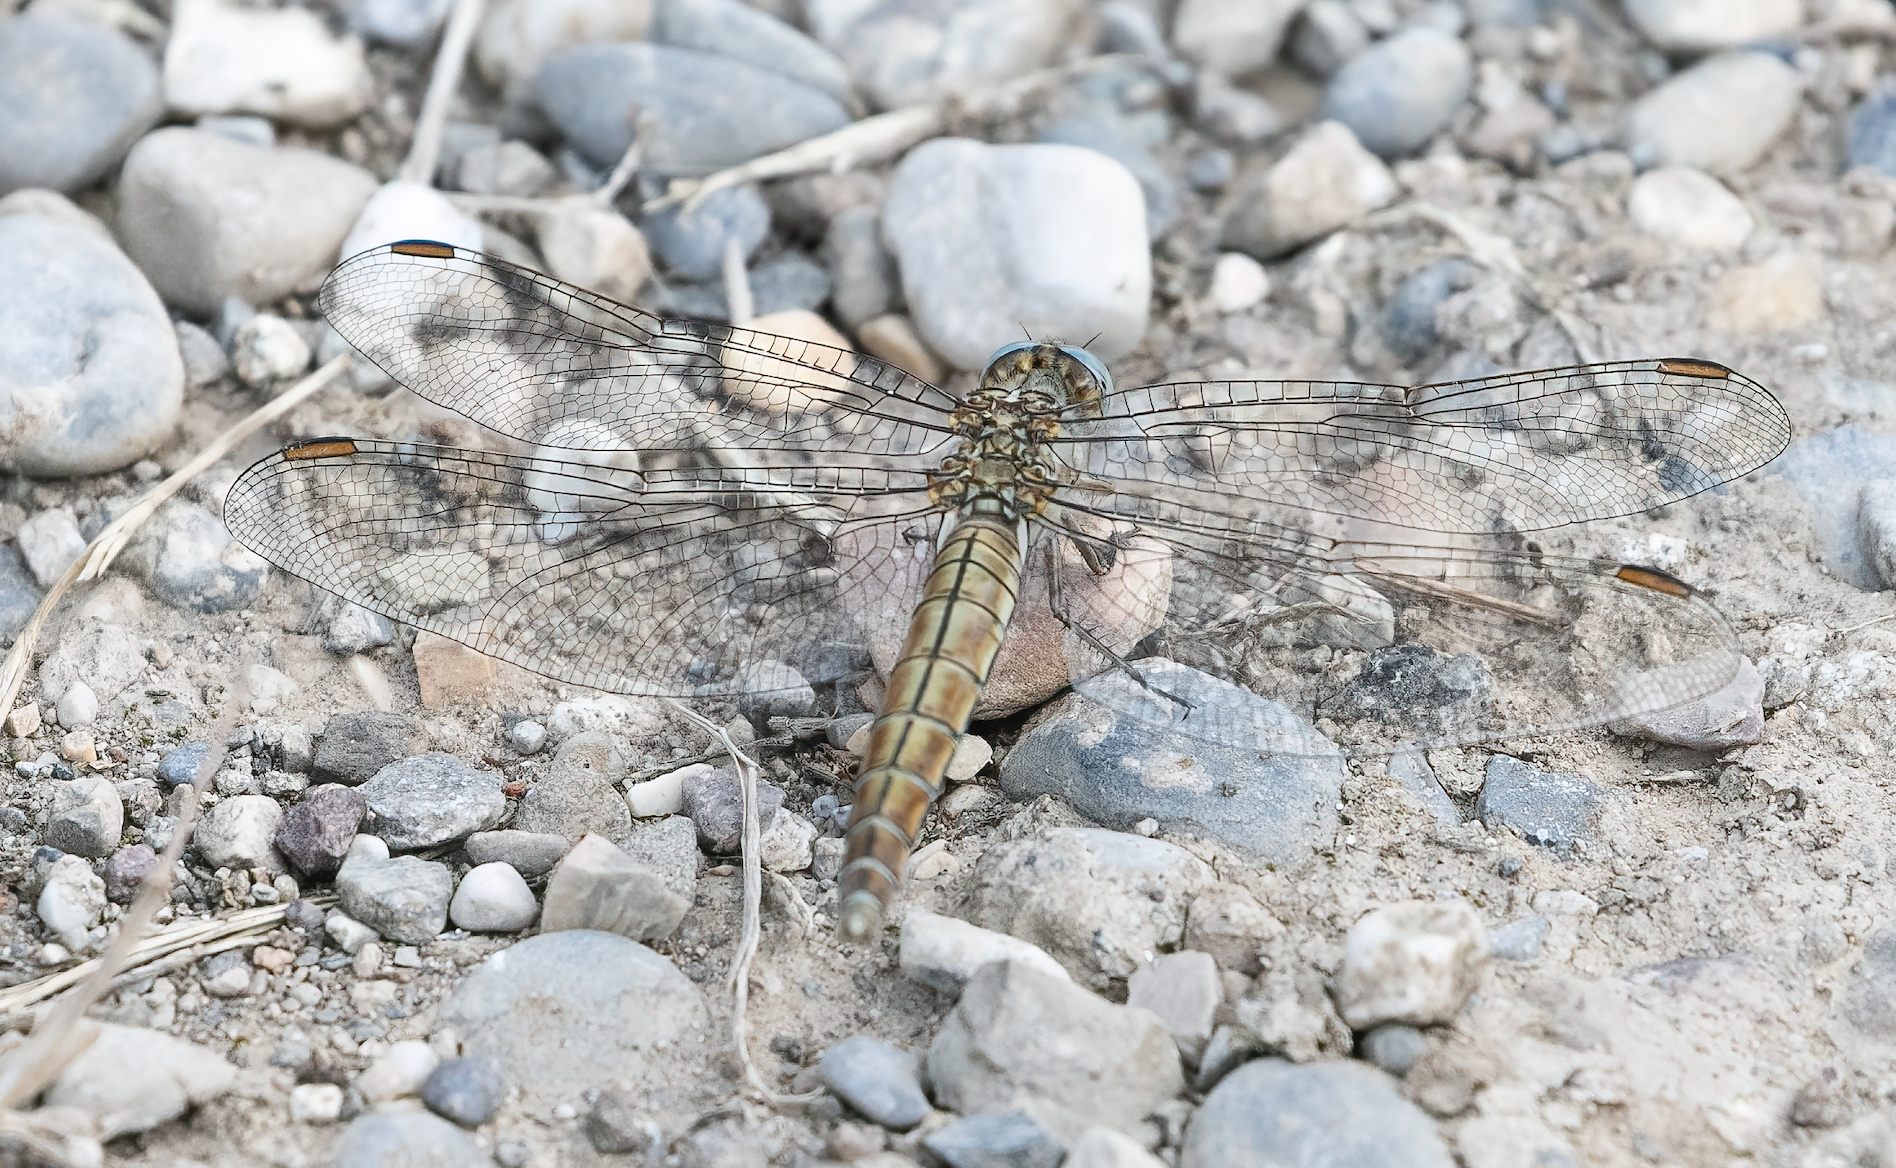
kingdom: Animalia
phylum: Arthropoda
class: Insecta
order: Odonata
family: Libellulidae
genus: Orthetrum
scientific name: Orthetrum brunneum
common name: Southern skimmer
